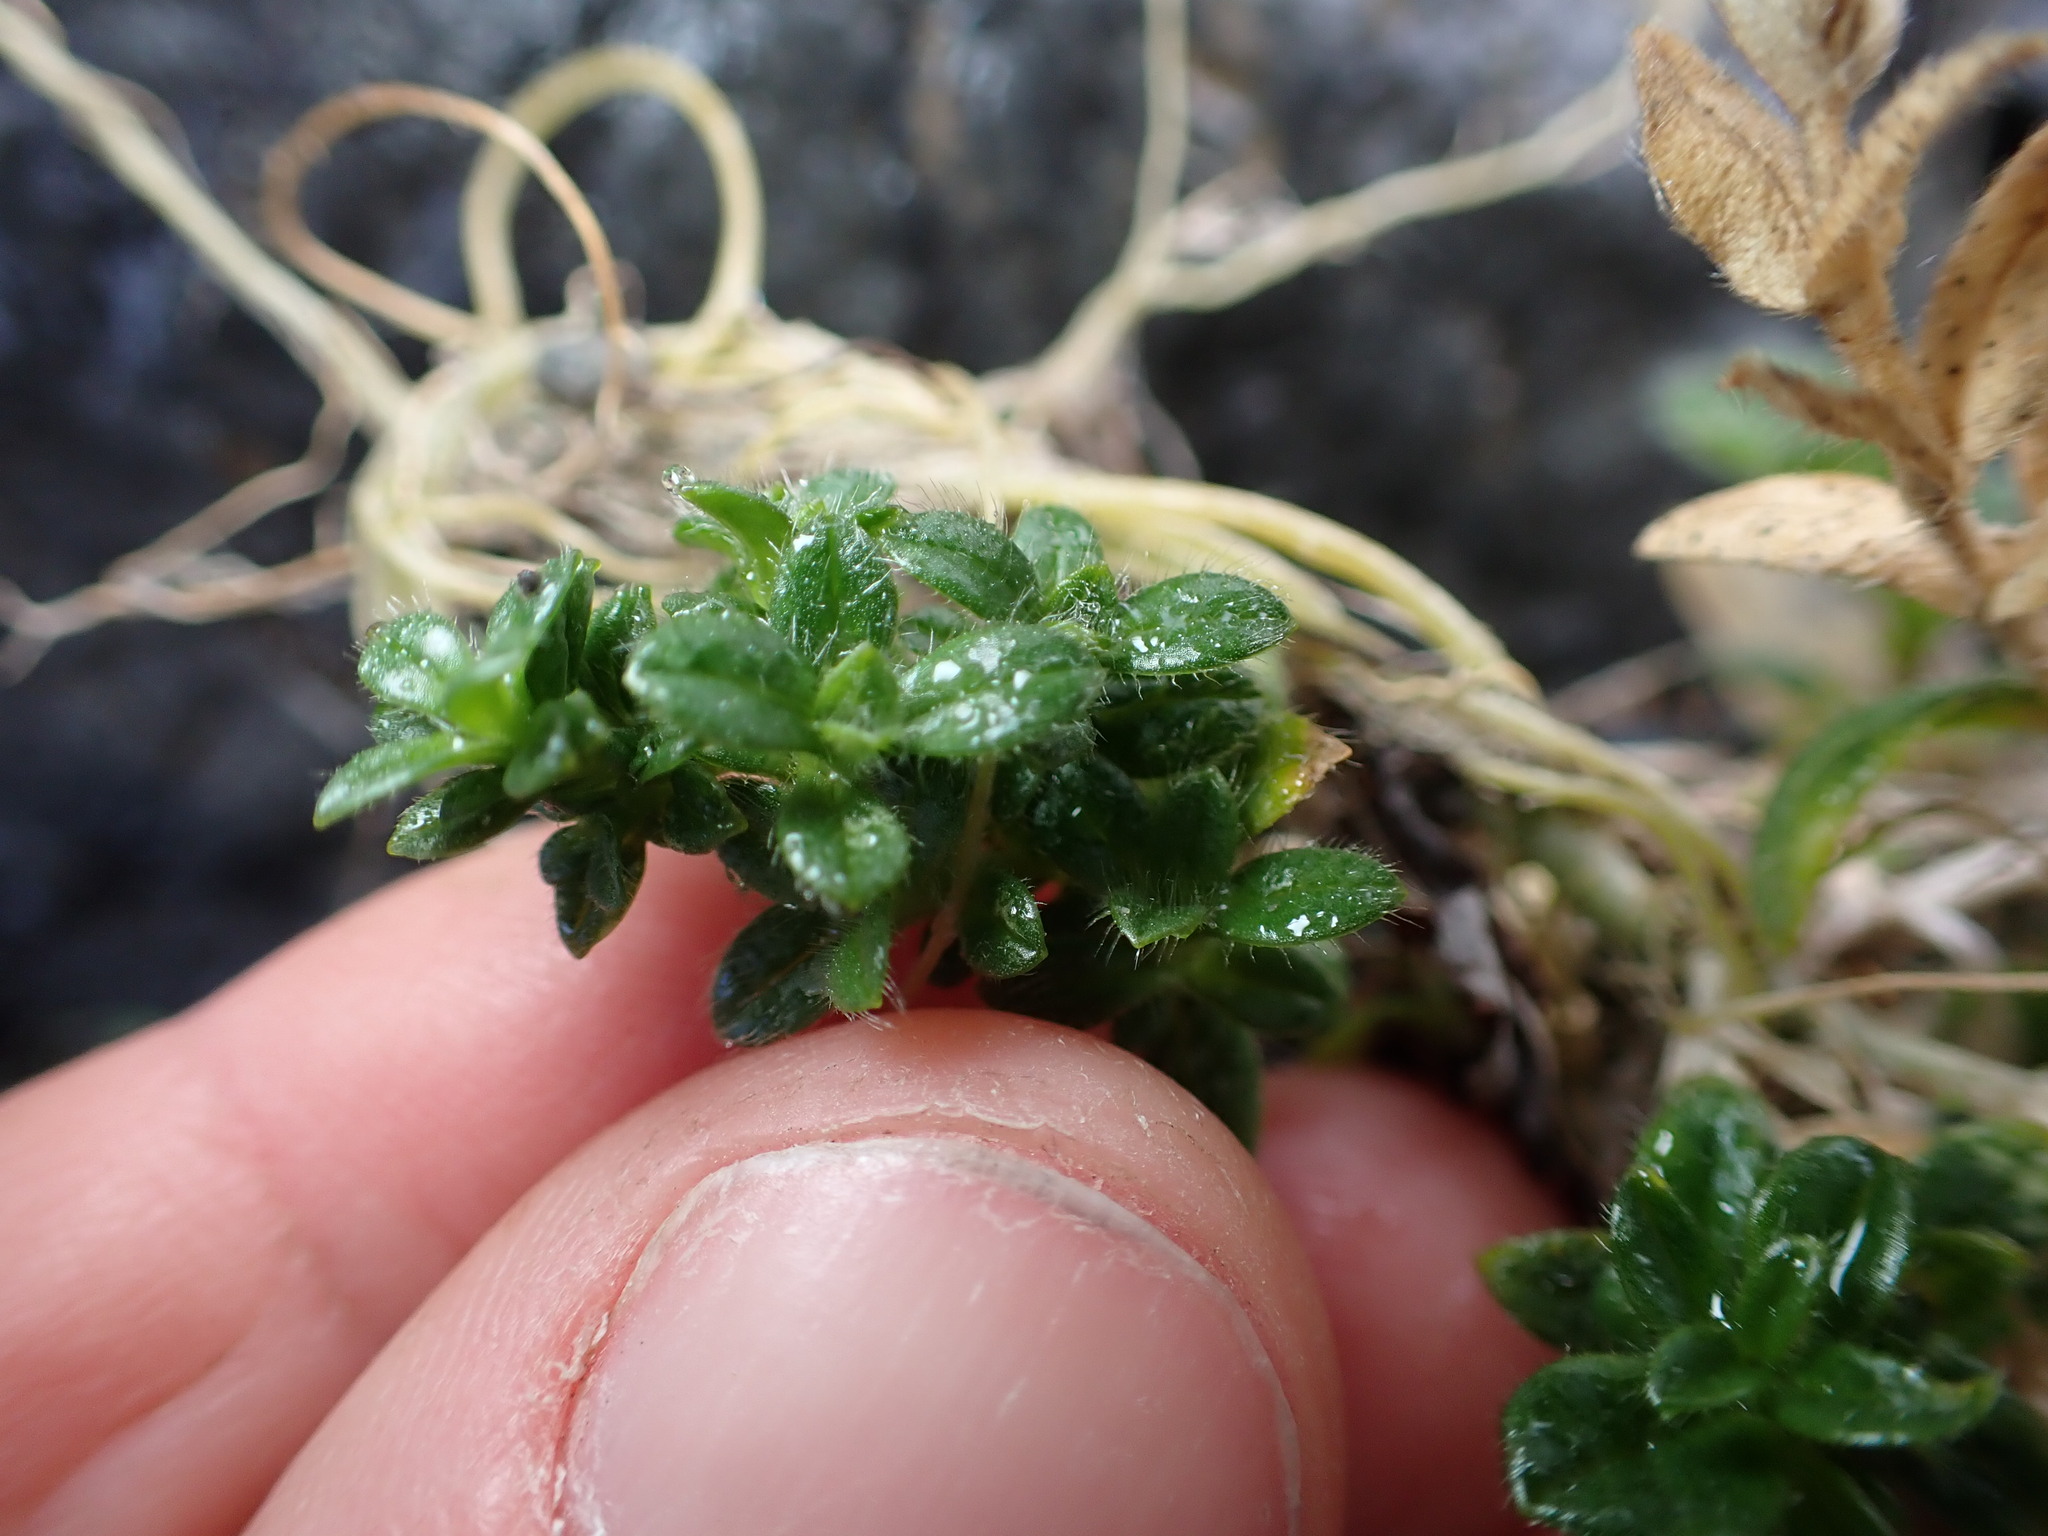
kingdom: Plantae
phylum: Tracheophyta
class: Magnoliopsida
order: Caryophyllales
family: Caryophyllaceae
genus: Cerastium
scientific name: Cerastium fontanum
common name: Common mouse-ear
